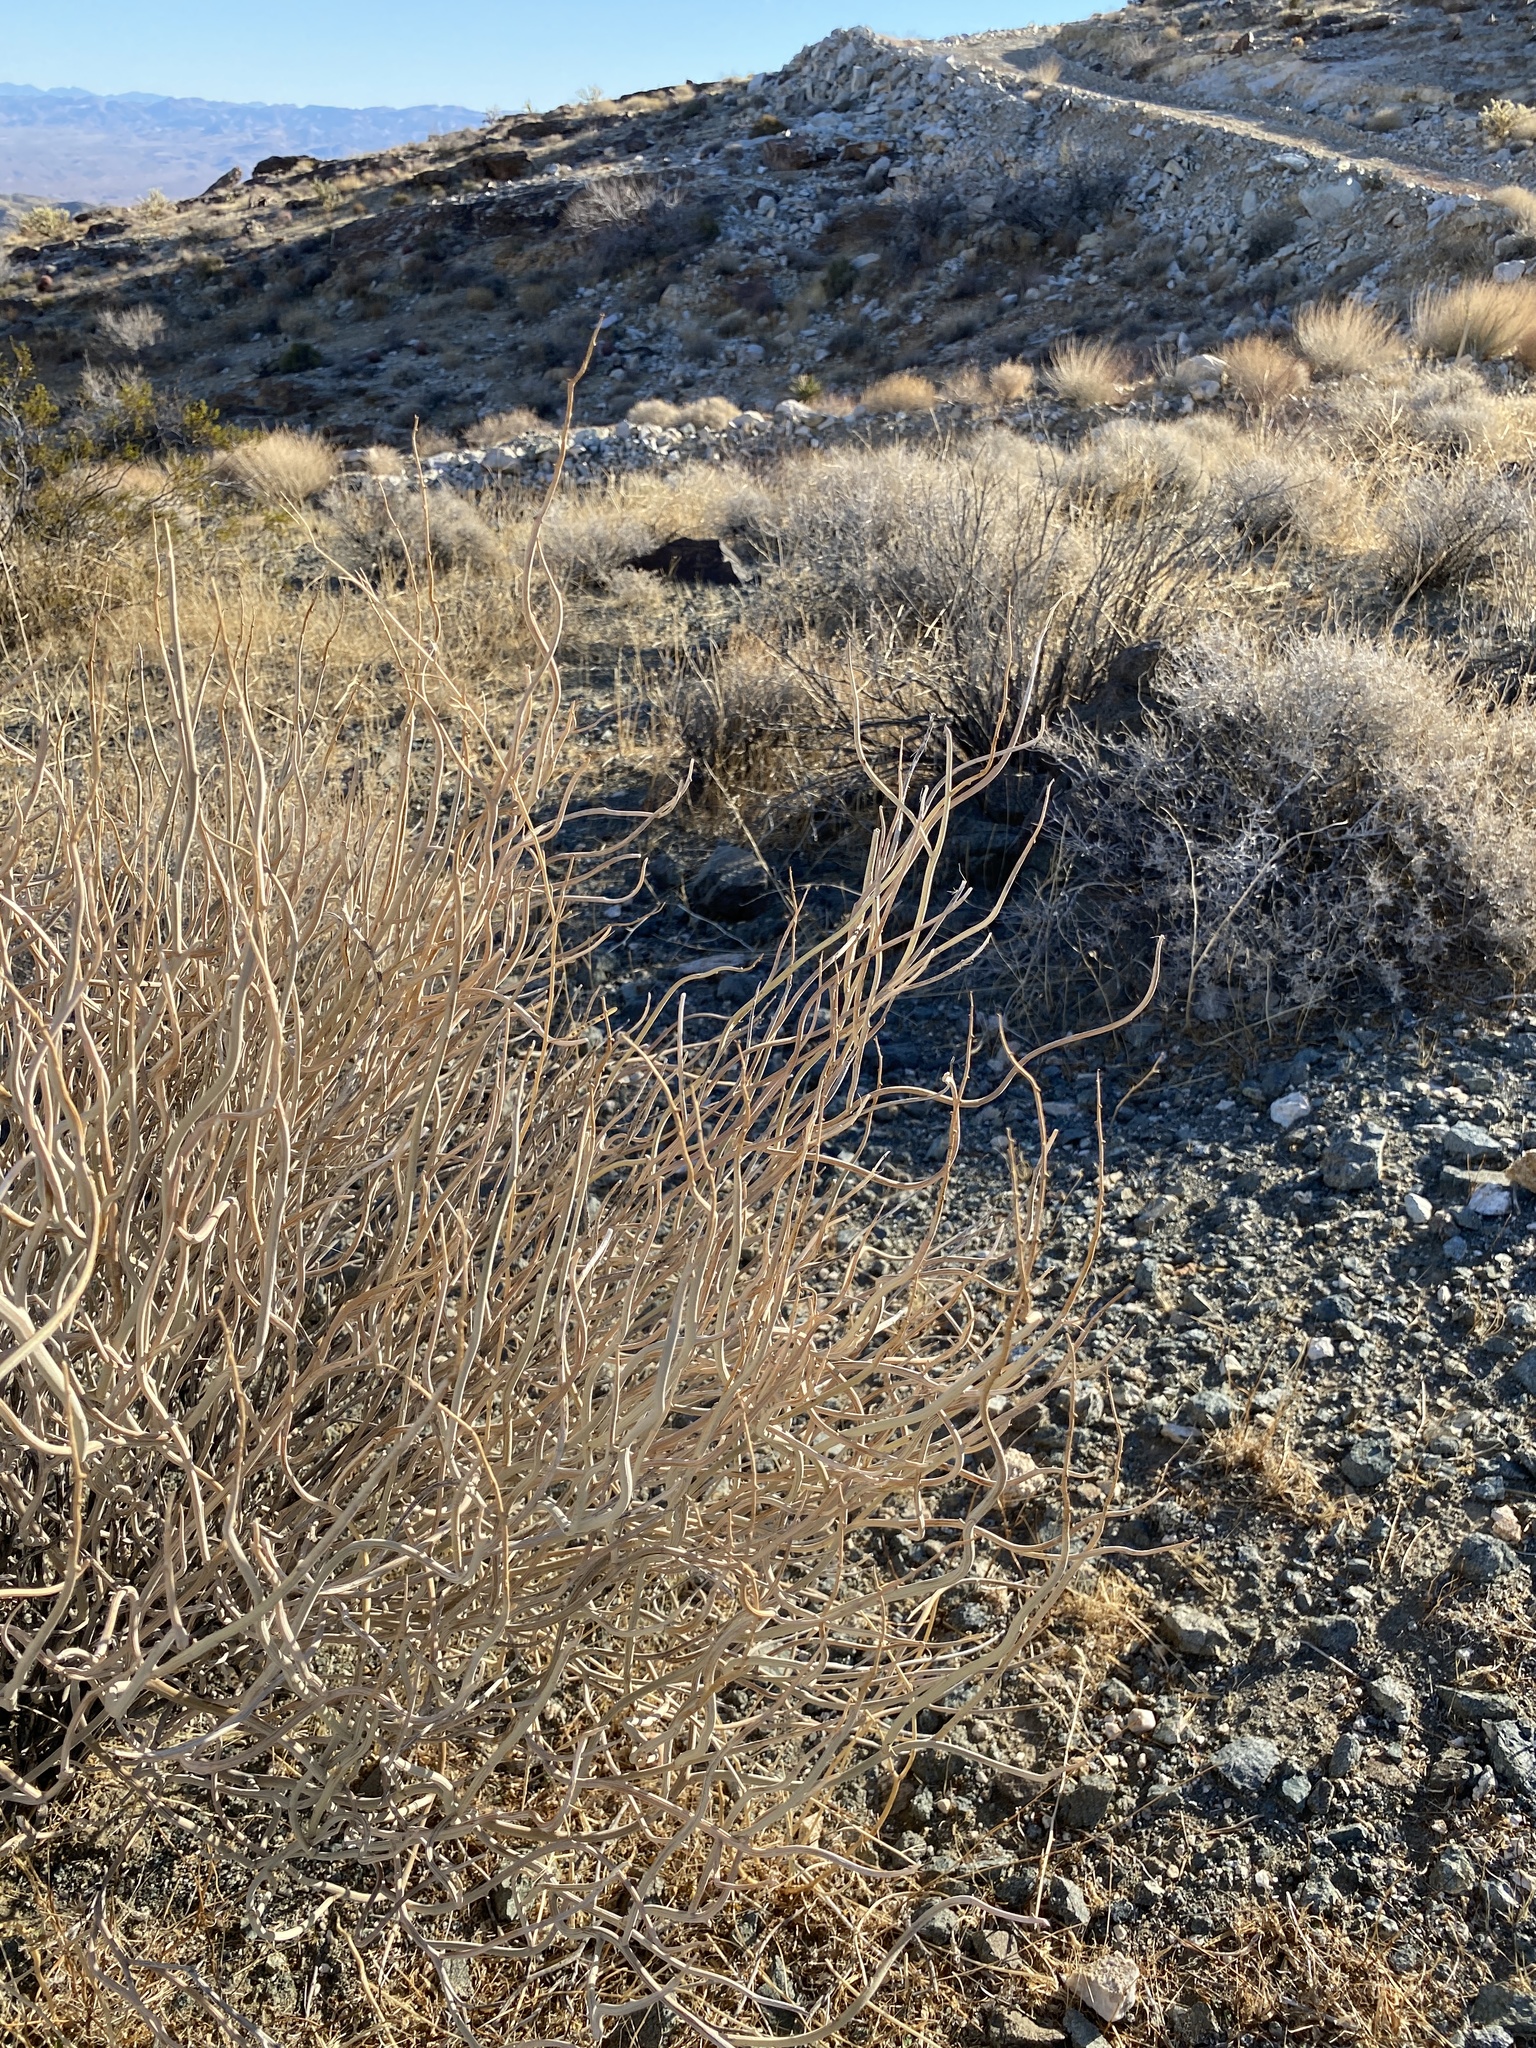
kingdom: Plantae
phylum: Tracheophyta
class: Magnoliopsida
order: Fabales
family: Fabaceae
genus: Senna
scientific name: Senna armata
